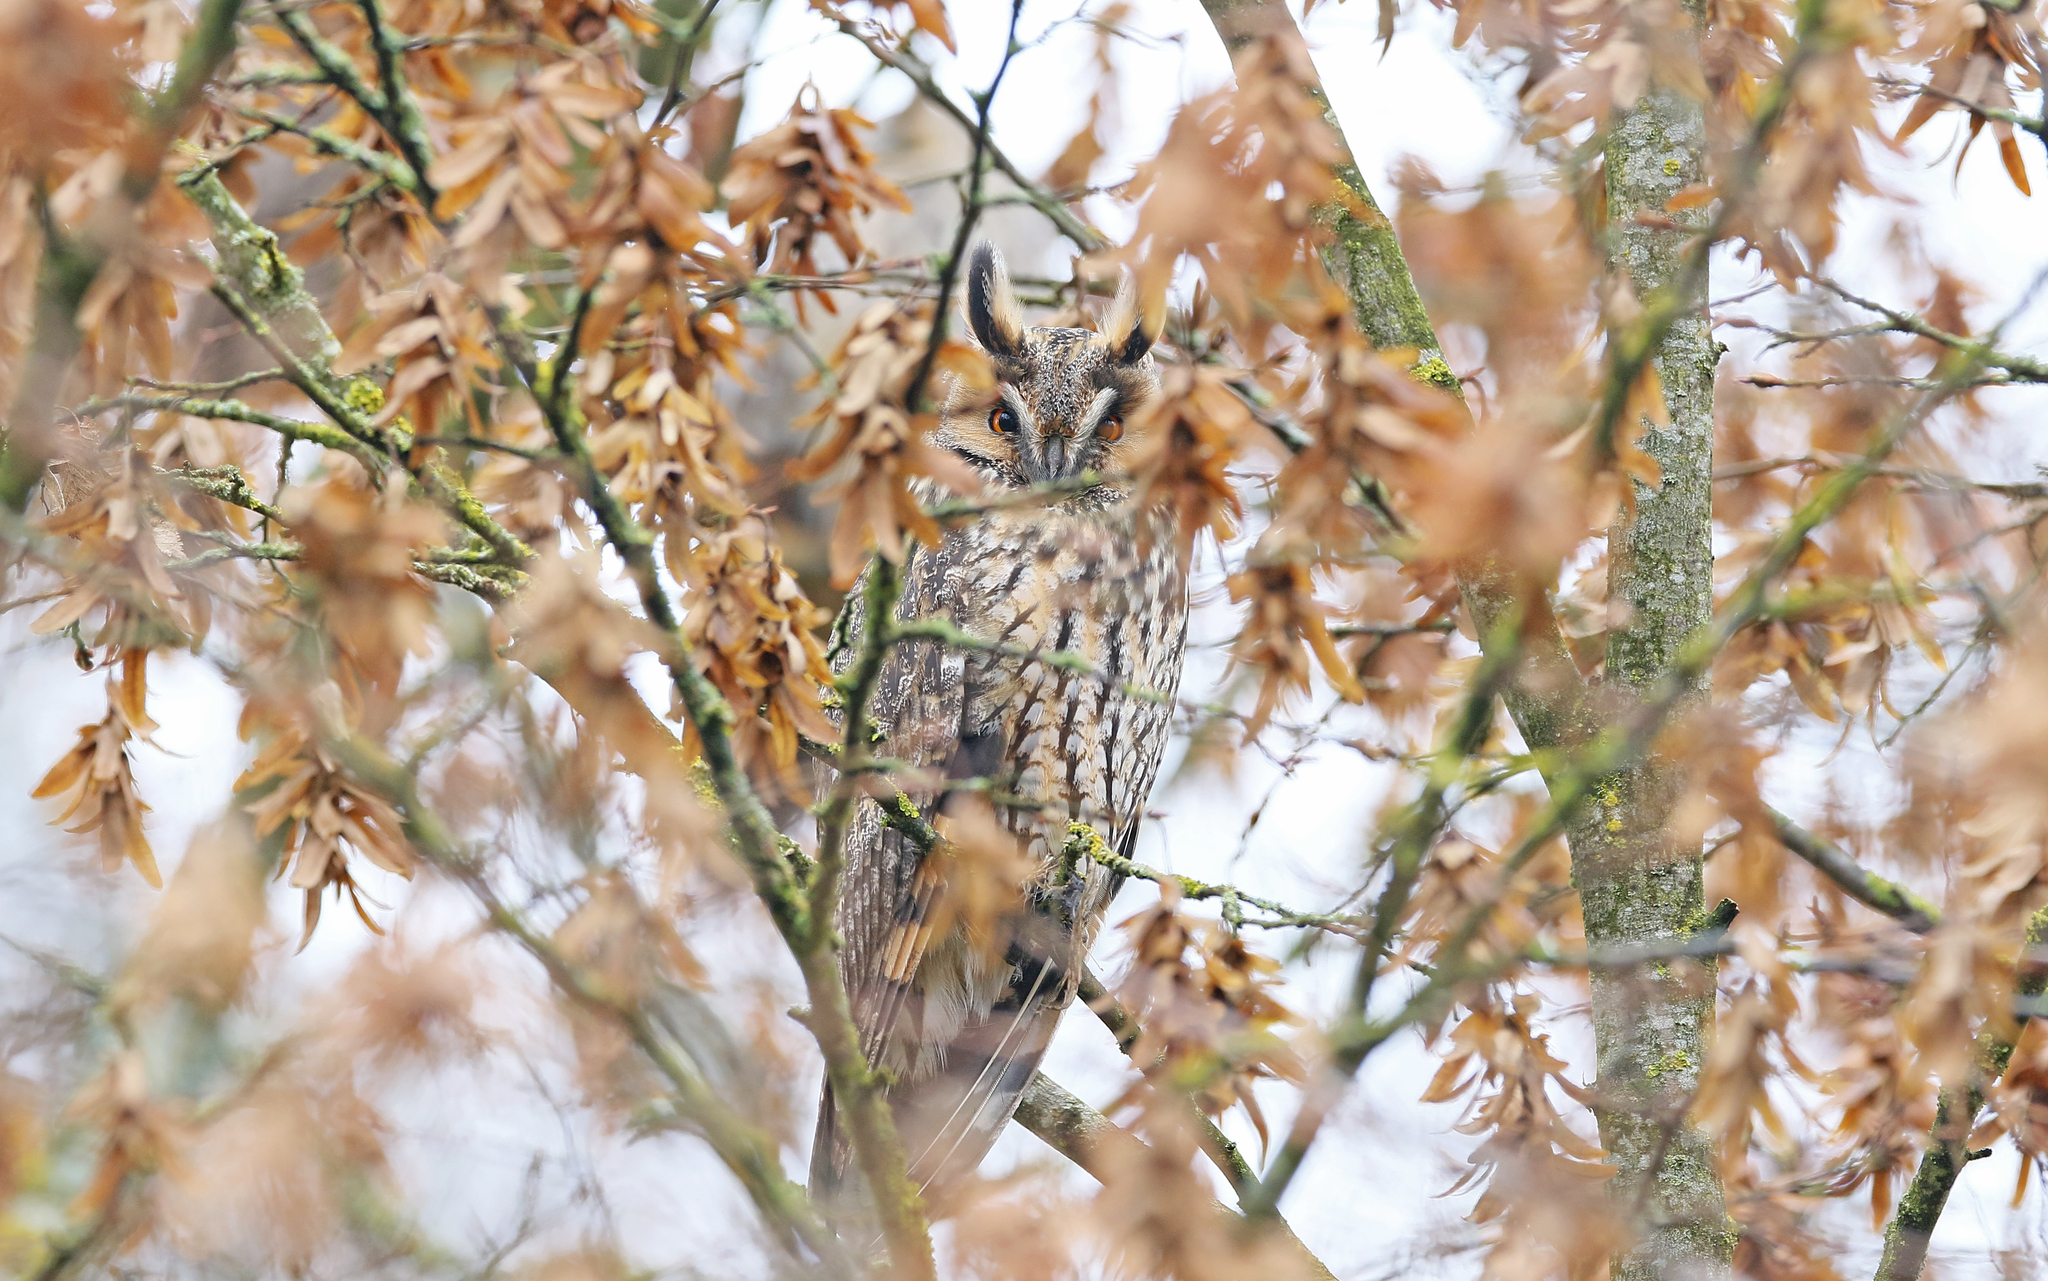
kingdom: Animalia
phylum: Chordata
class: Aves
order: Strigiformes
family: Strigidae
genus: Asio
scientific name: Asio otus
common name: Long-eared owl
